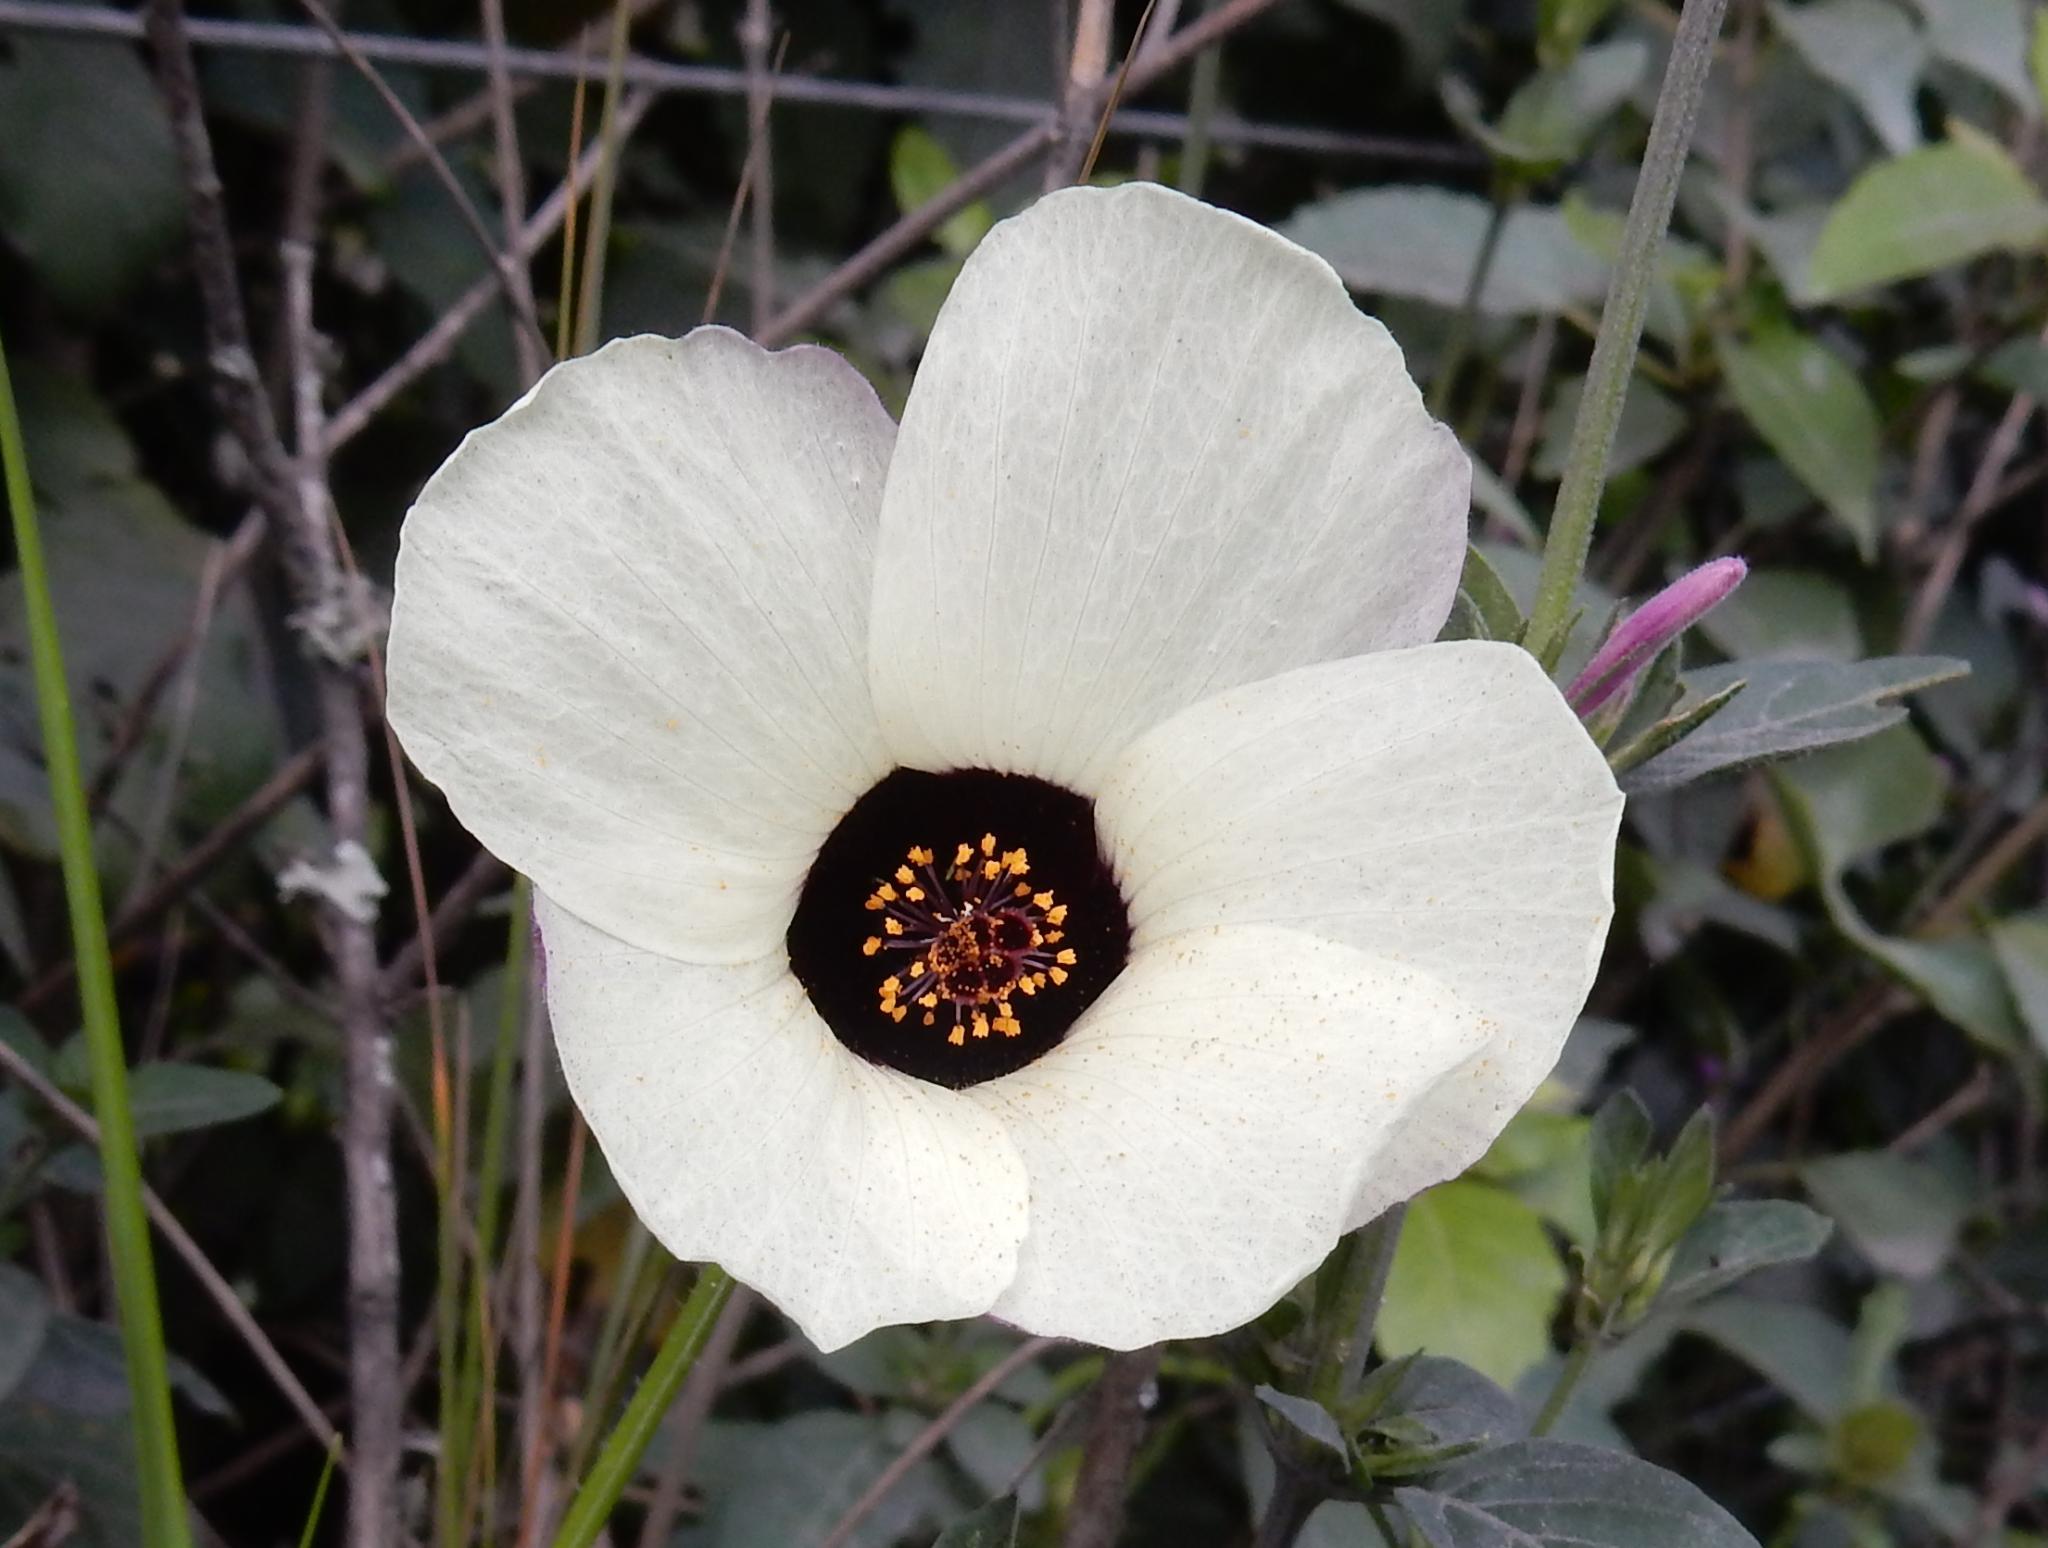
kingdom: Plantae
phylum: Tracheophyta
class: Magnoliopsida
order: Malvales
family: Malvaceae
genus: Hibiscus
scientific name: Hibiscus trionum
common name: Bladder ketmia
